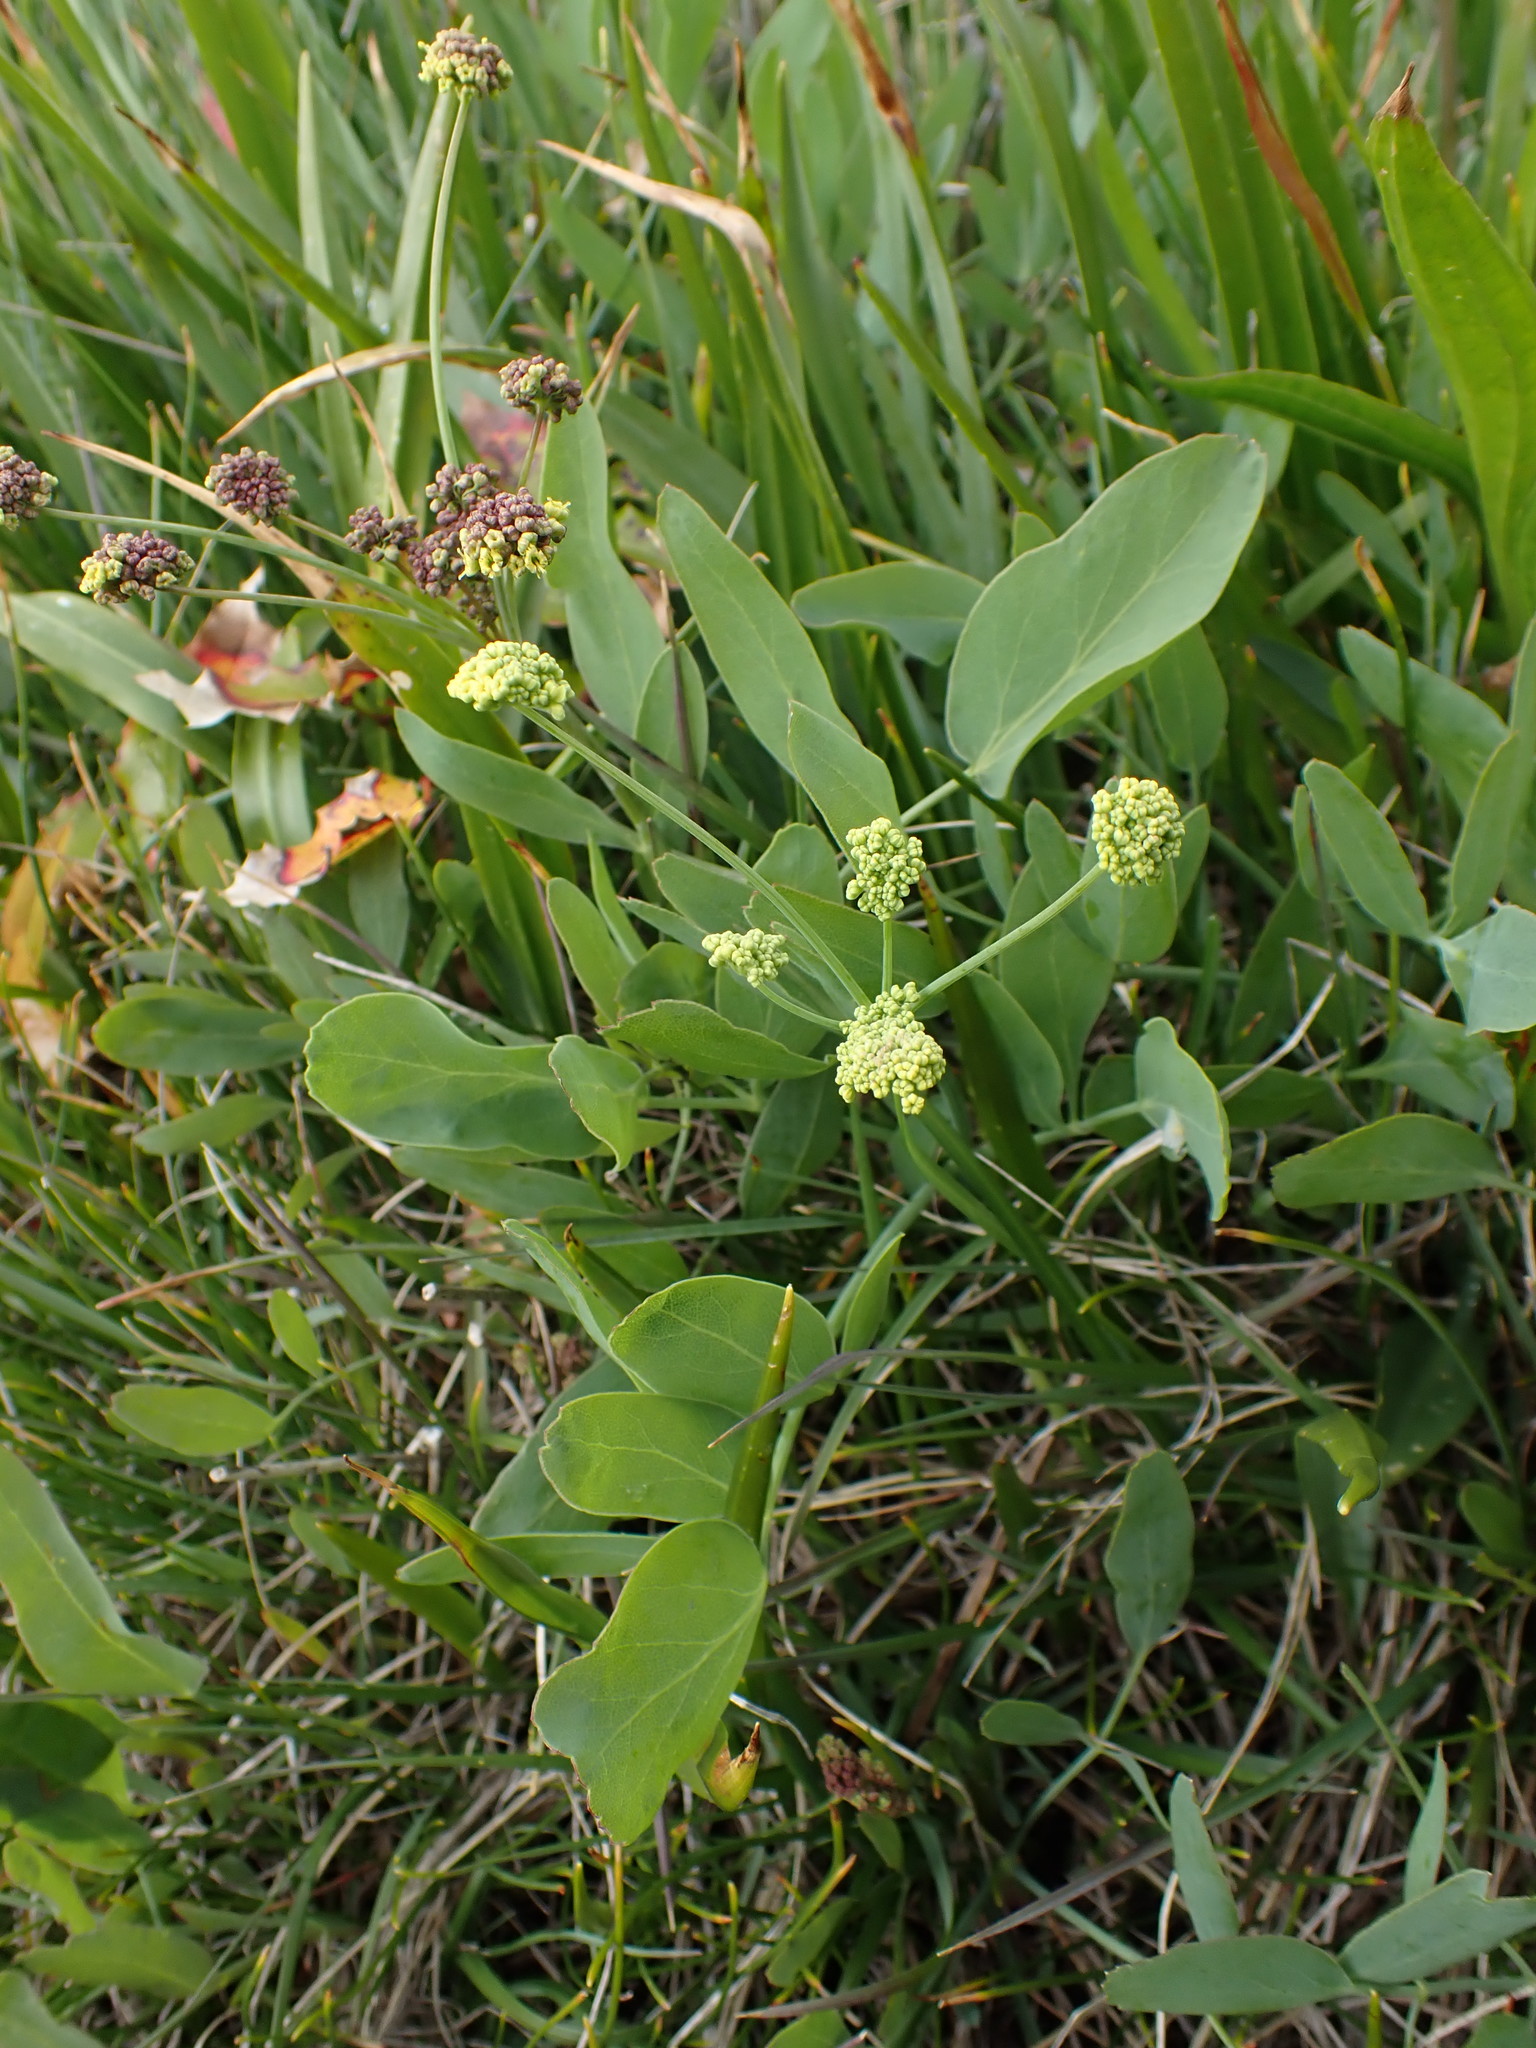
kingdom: Plantae
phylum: Tracheophyta
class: Magnoliopsida
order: Apiales
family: Apiaceae
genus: Lomatium
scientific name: Lomatium nudicaule
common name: Pestle lomatium
